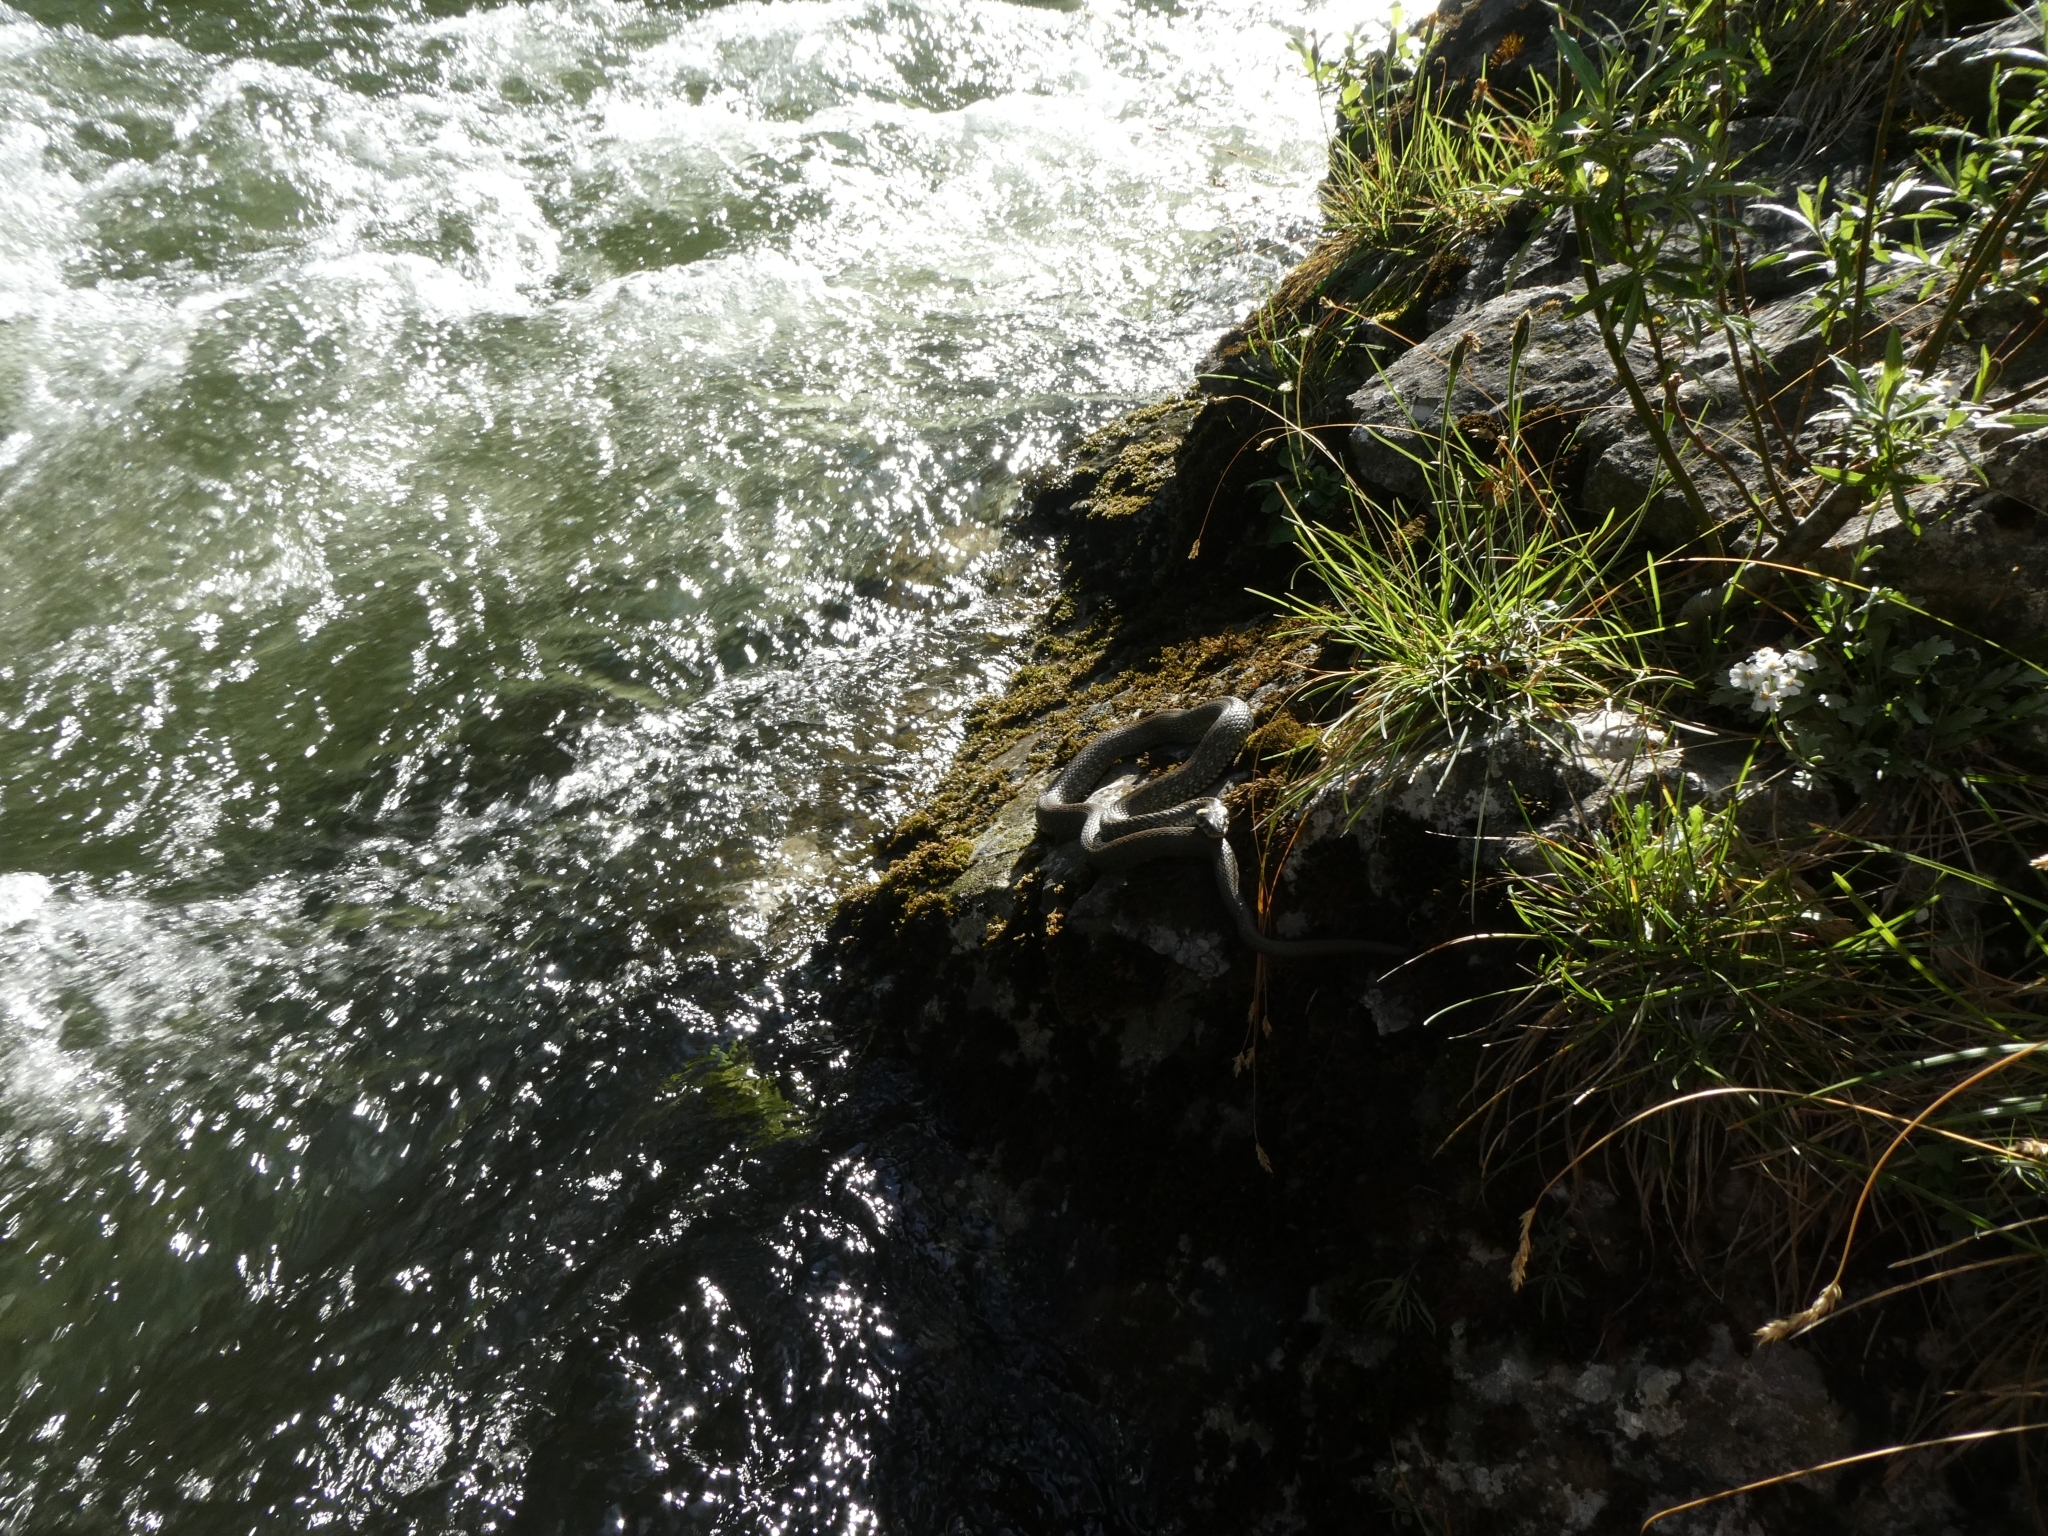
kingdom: Animalia
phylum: Chordata
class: Squamata
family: Colubridae
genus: Natrix
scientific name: Natrix natrix
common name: Grass snake
